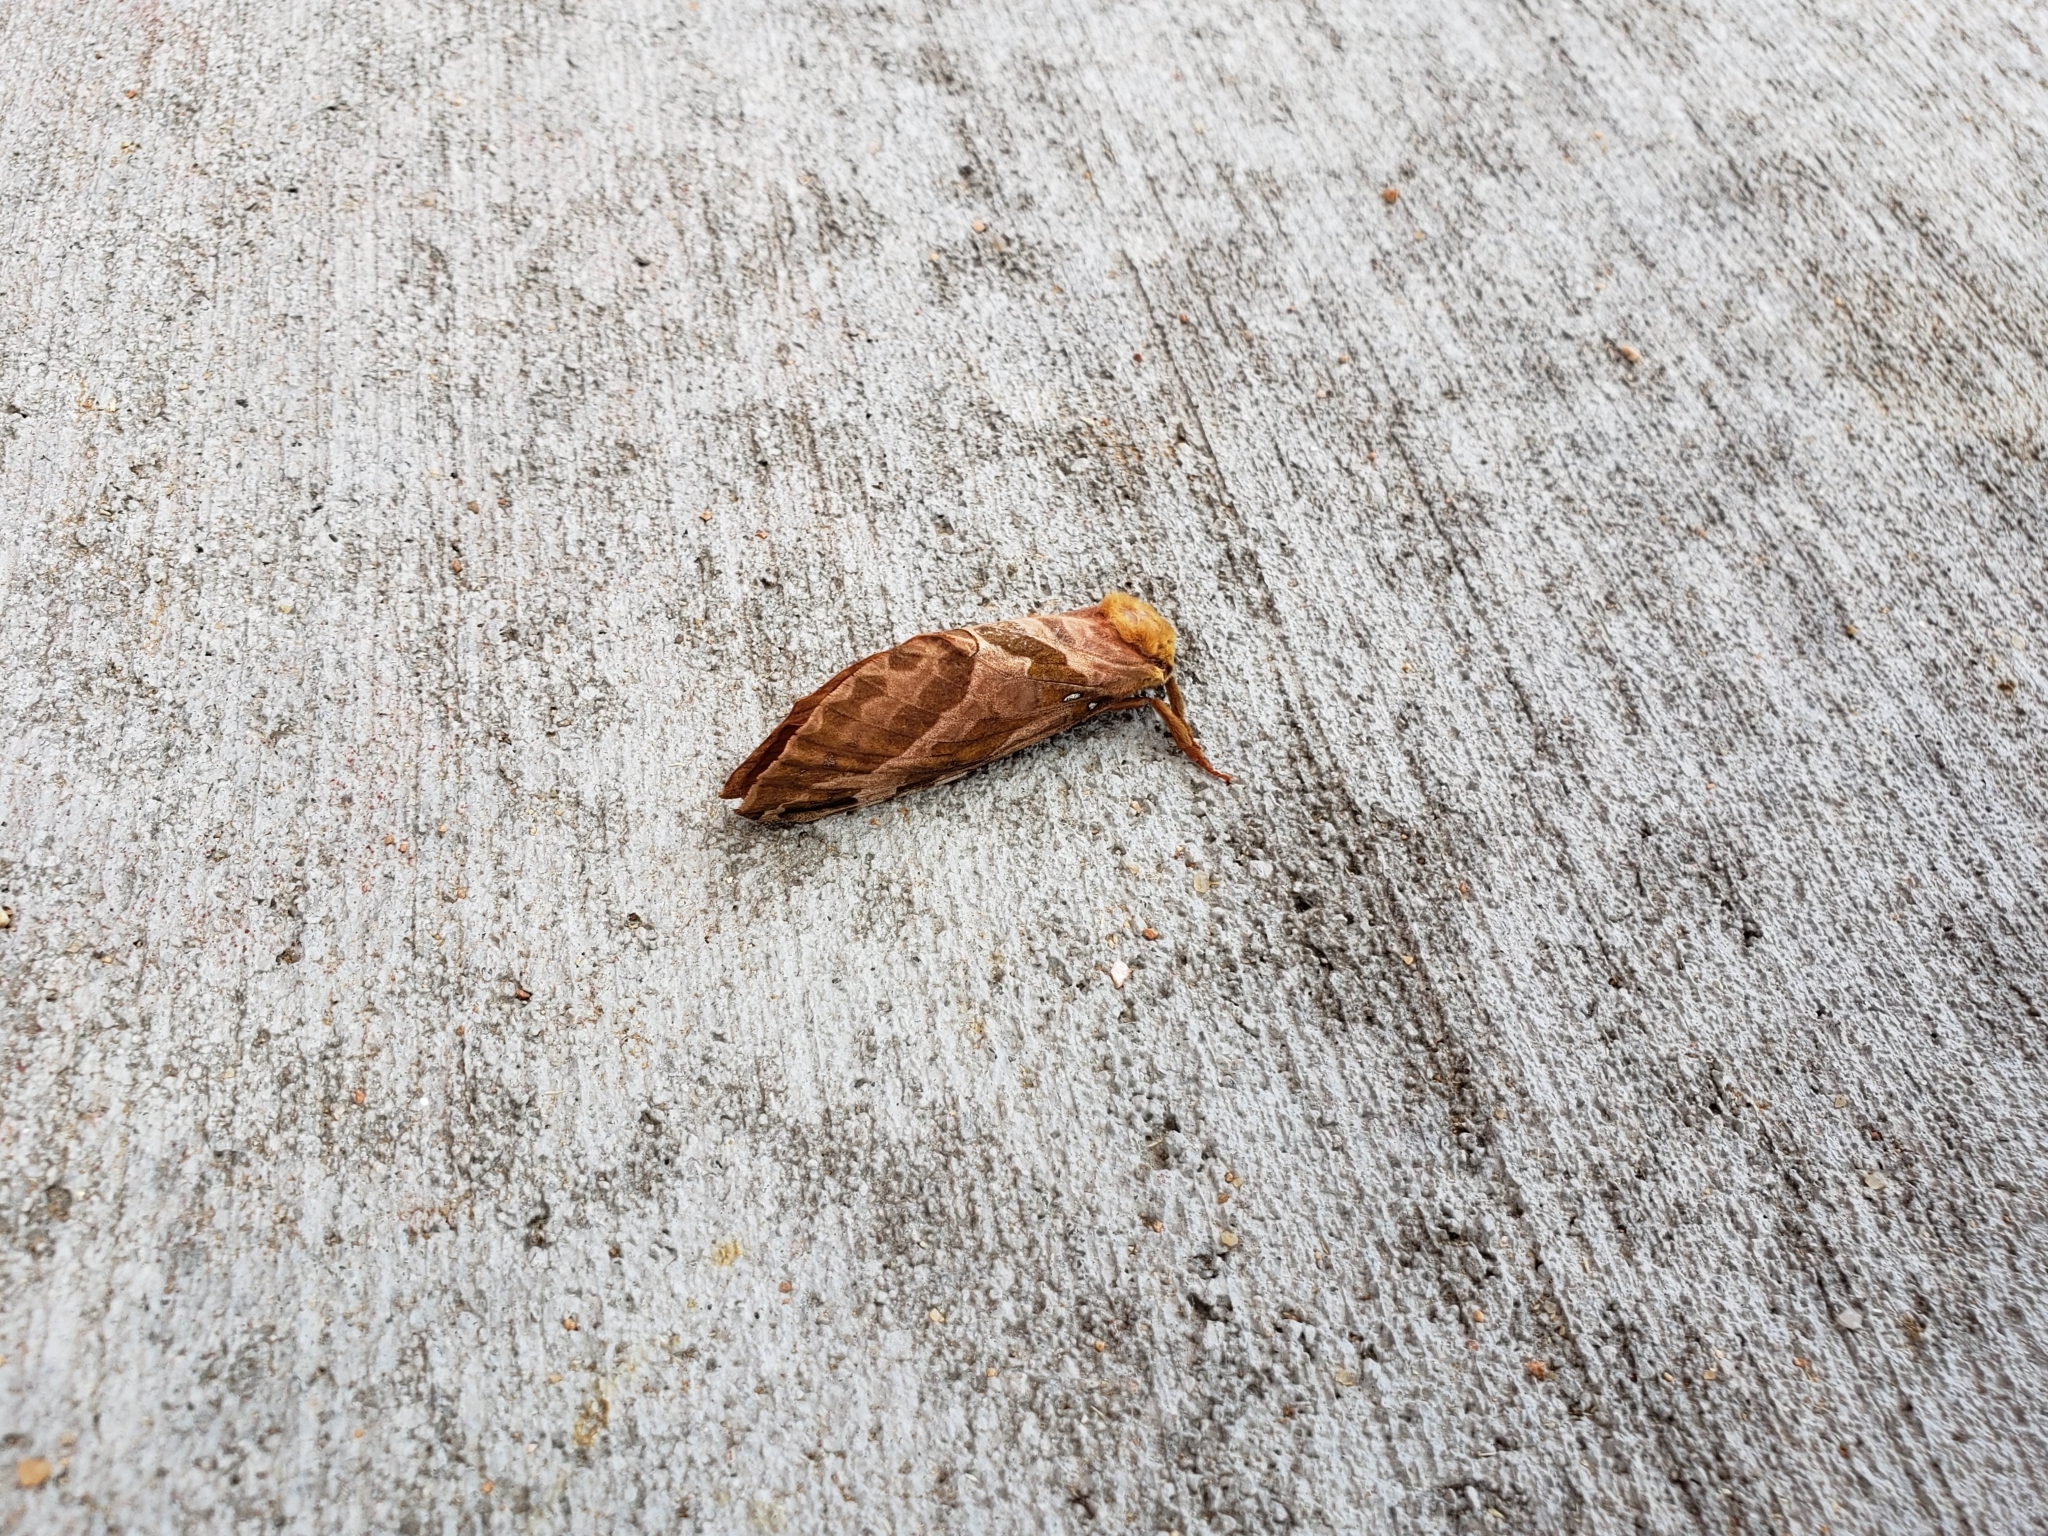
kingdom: Animalia
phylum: Arthropoda
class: Insecta
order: Lepidoptera
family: Hepialidae
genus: Sthenopis
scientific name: Sthenopis purpurascens
